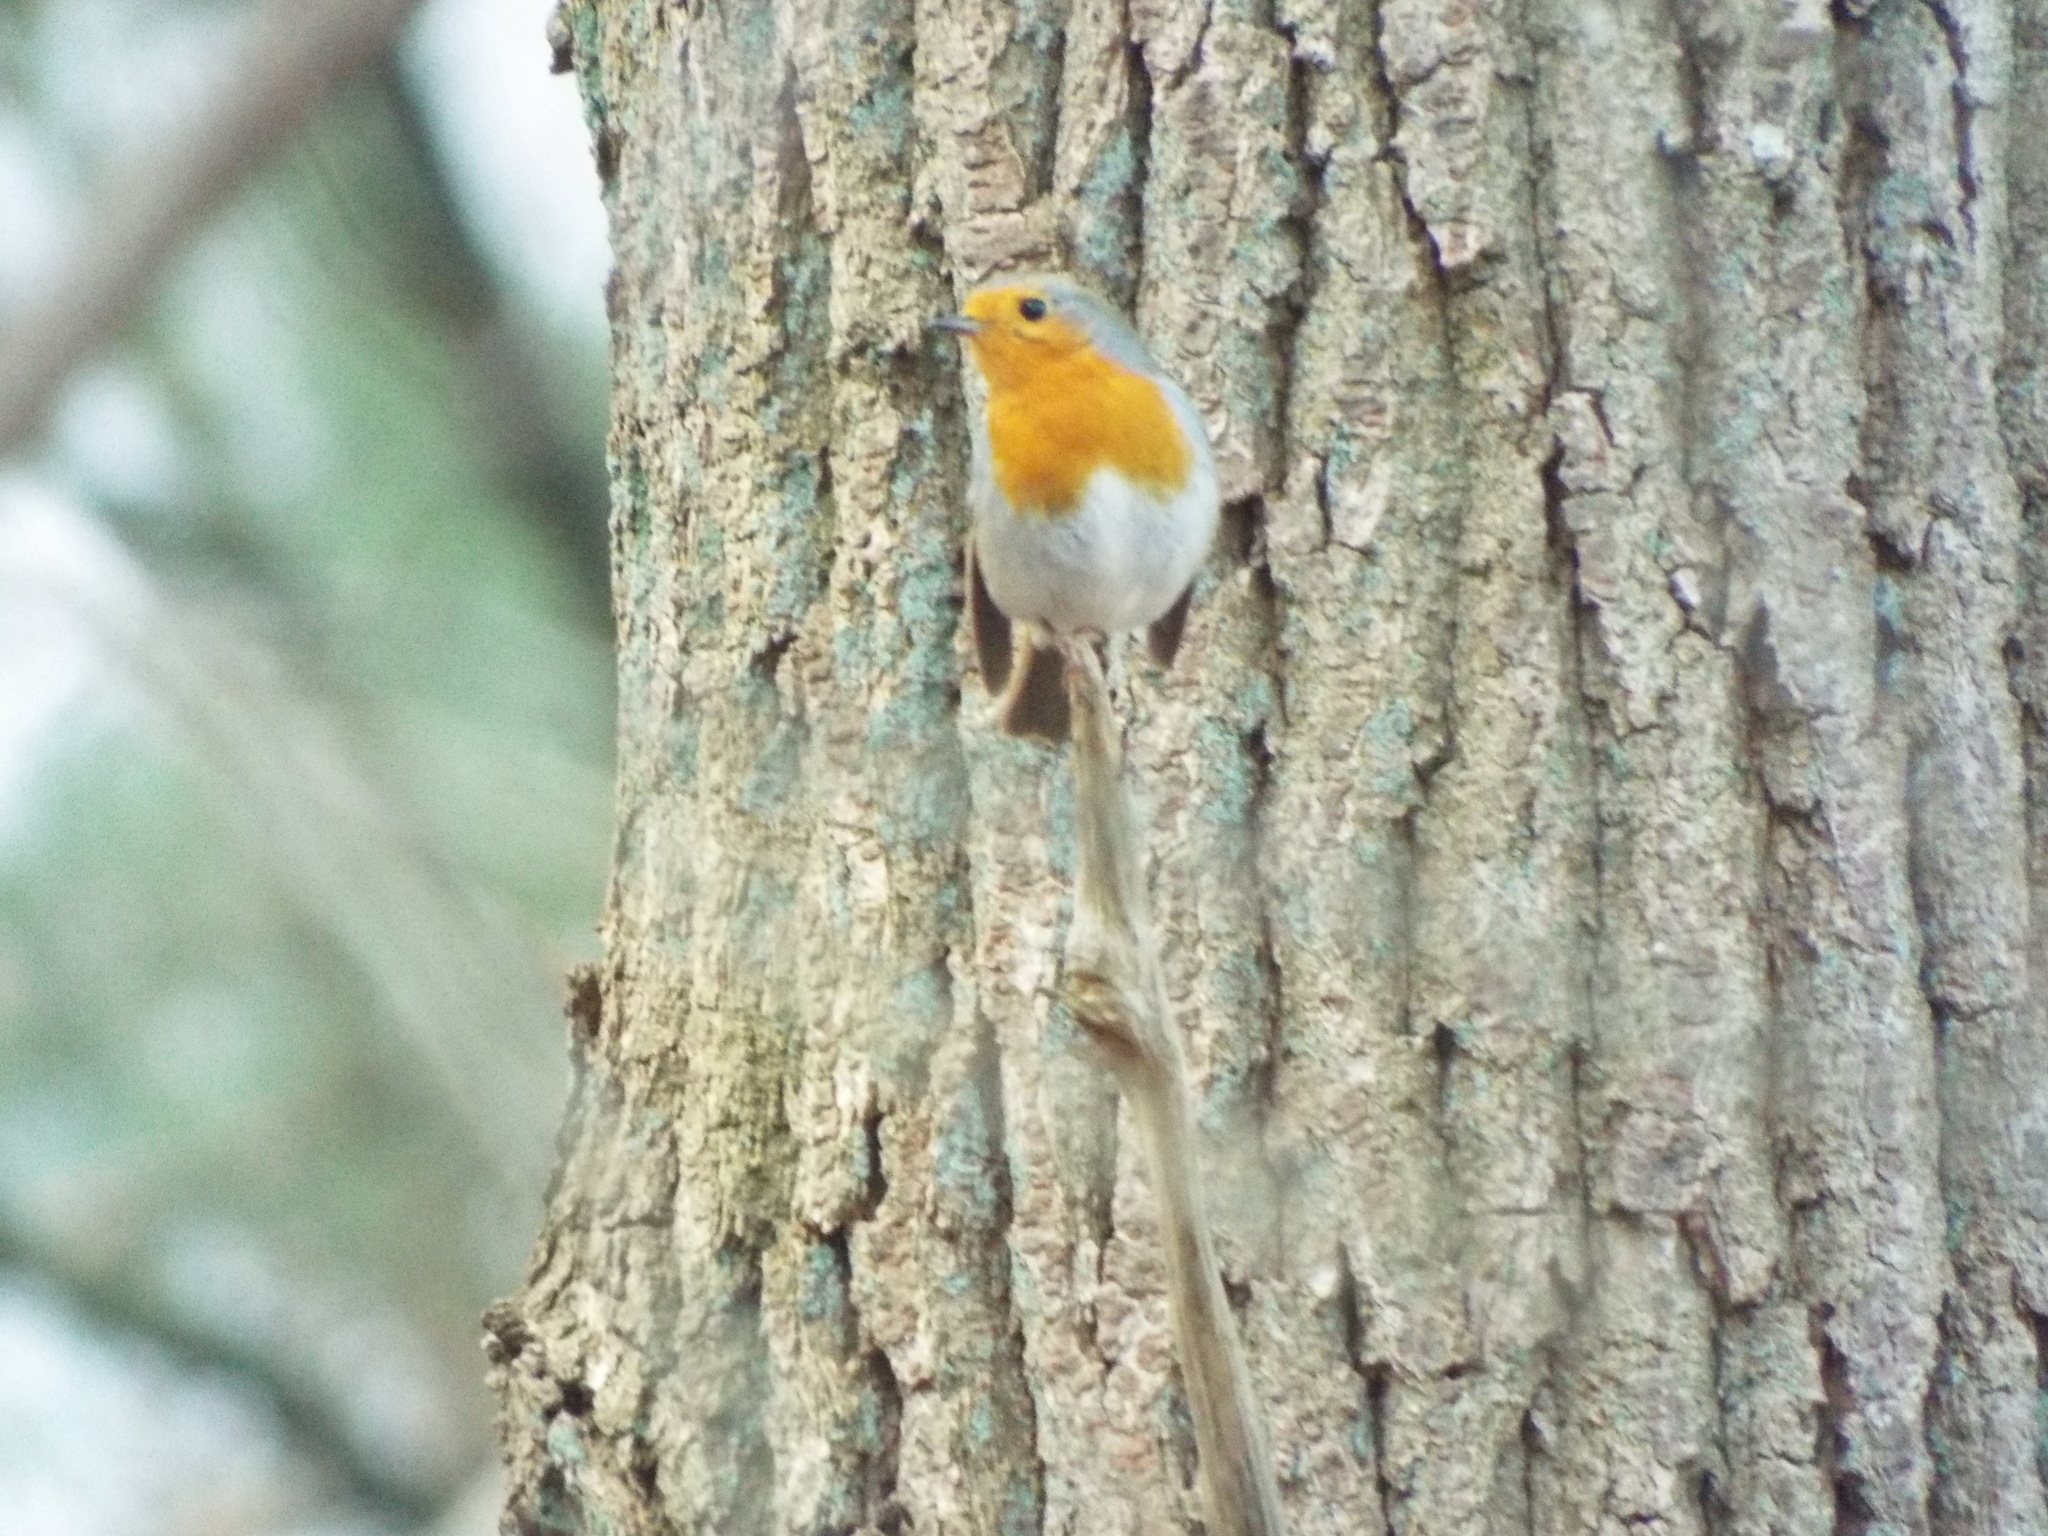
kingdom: Animalia
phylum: Chordata
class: Aves
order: Passeriformes
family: Muscicapidae
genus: Erithacus
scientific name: Erithacus rubecula
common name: European robin
